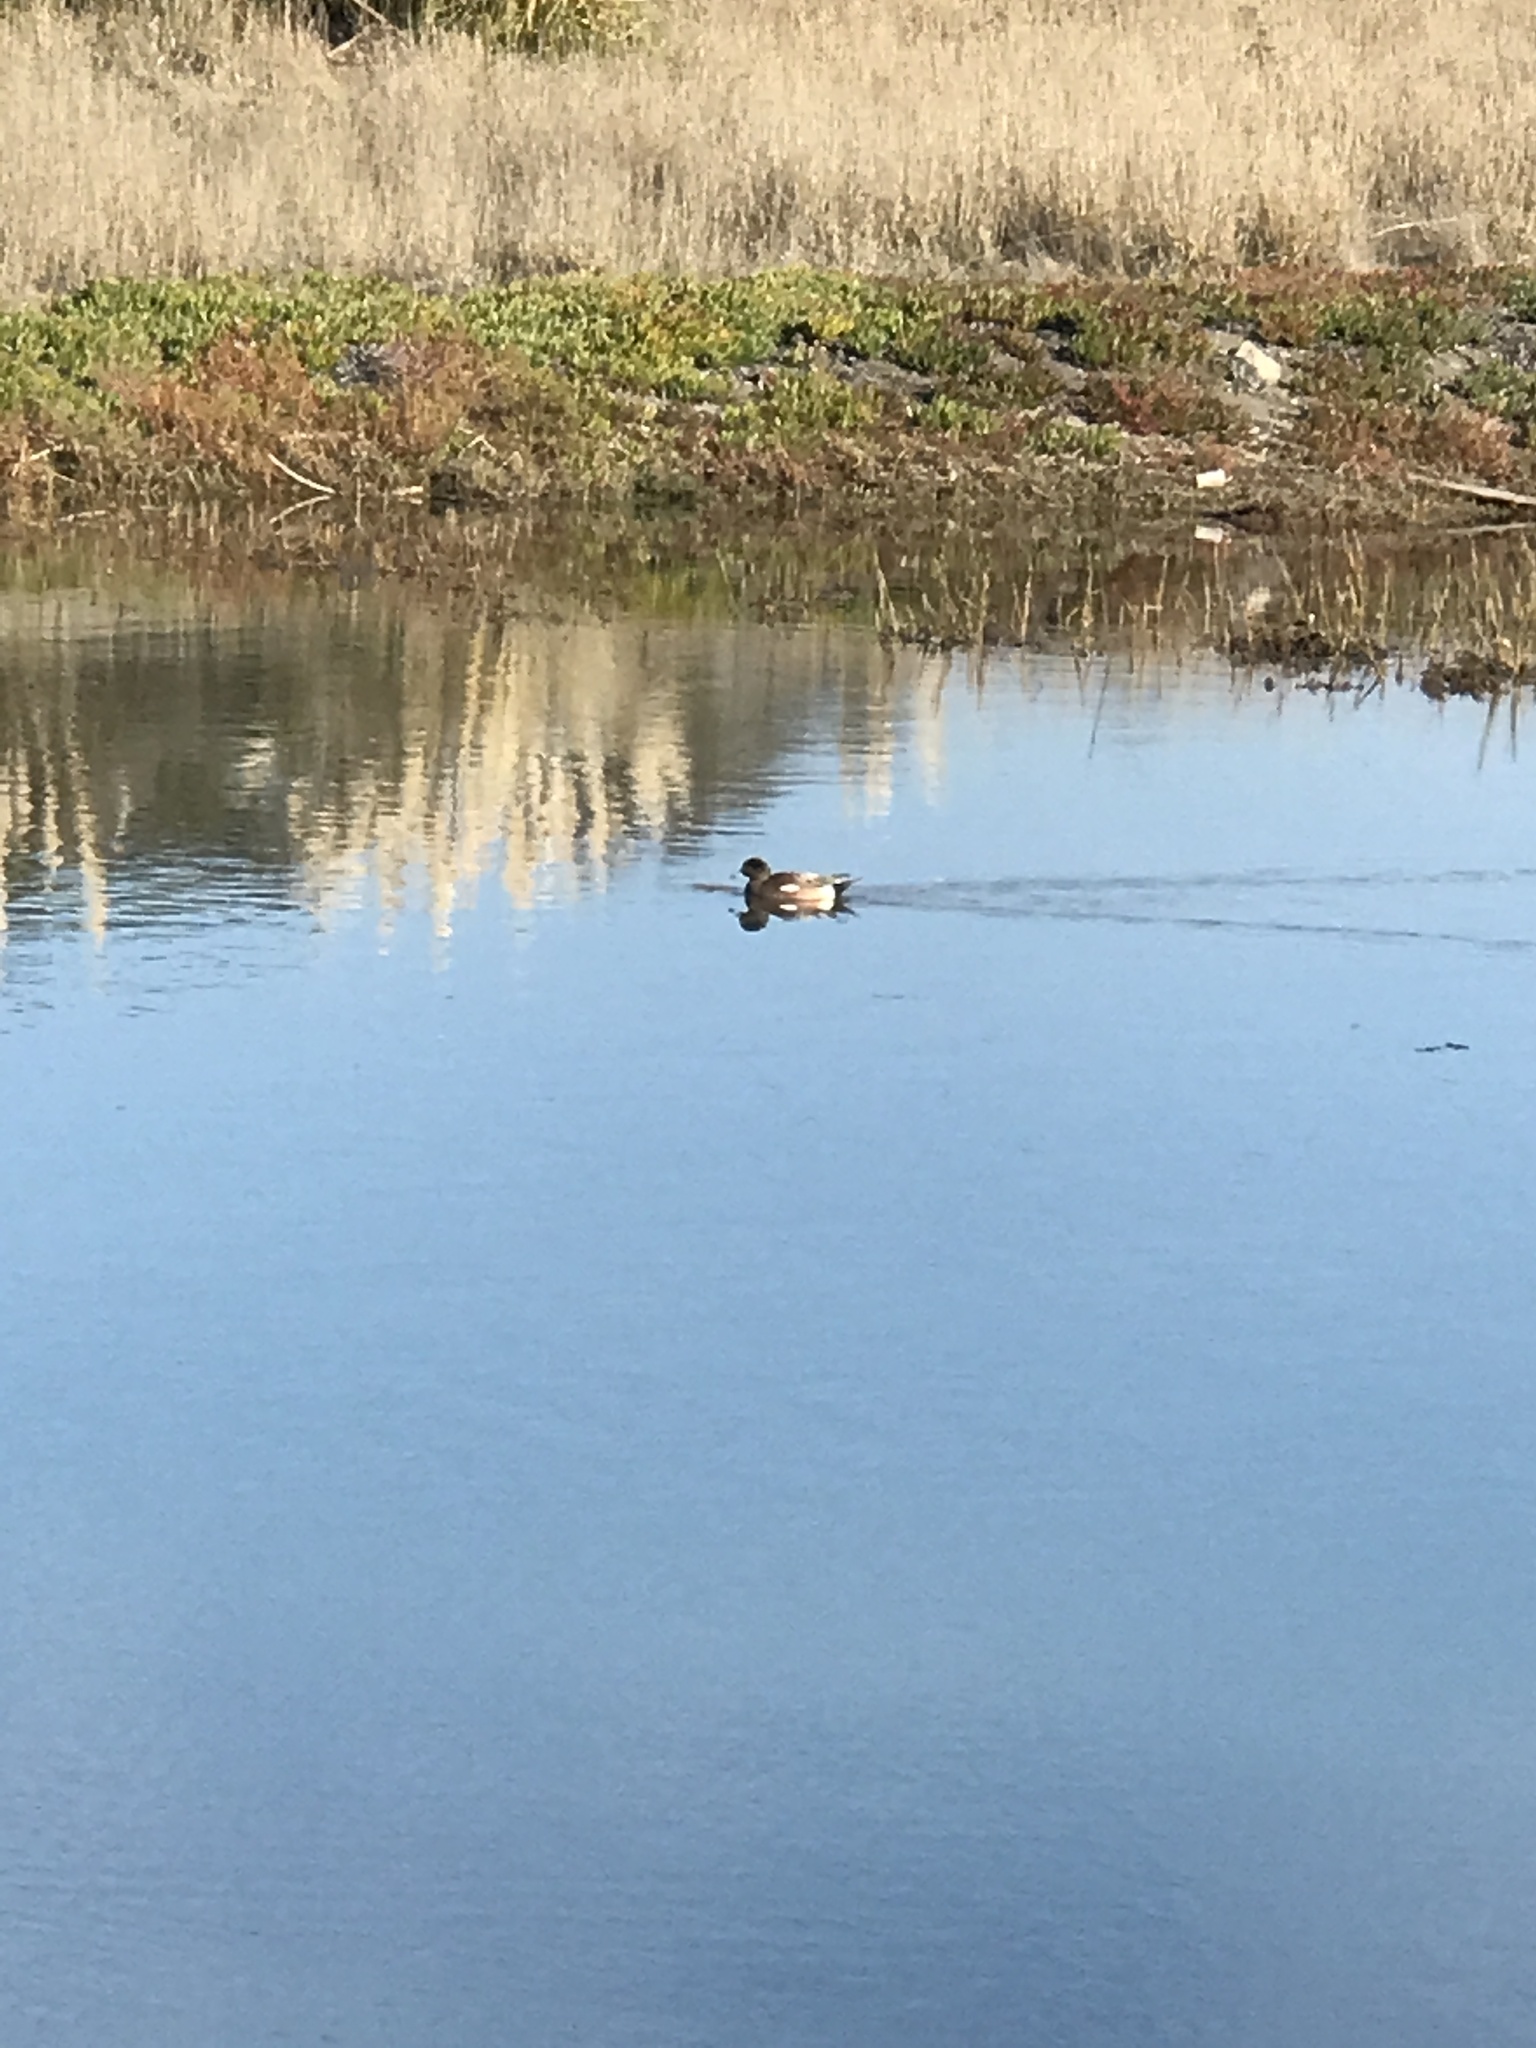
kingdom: Animalia
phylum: Chordata
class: Aves
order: Anseriformes
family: Anatidae
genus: Mareca
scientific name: Mareca americana
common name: American wigeon
